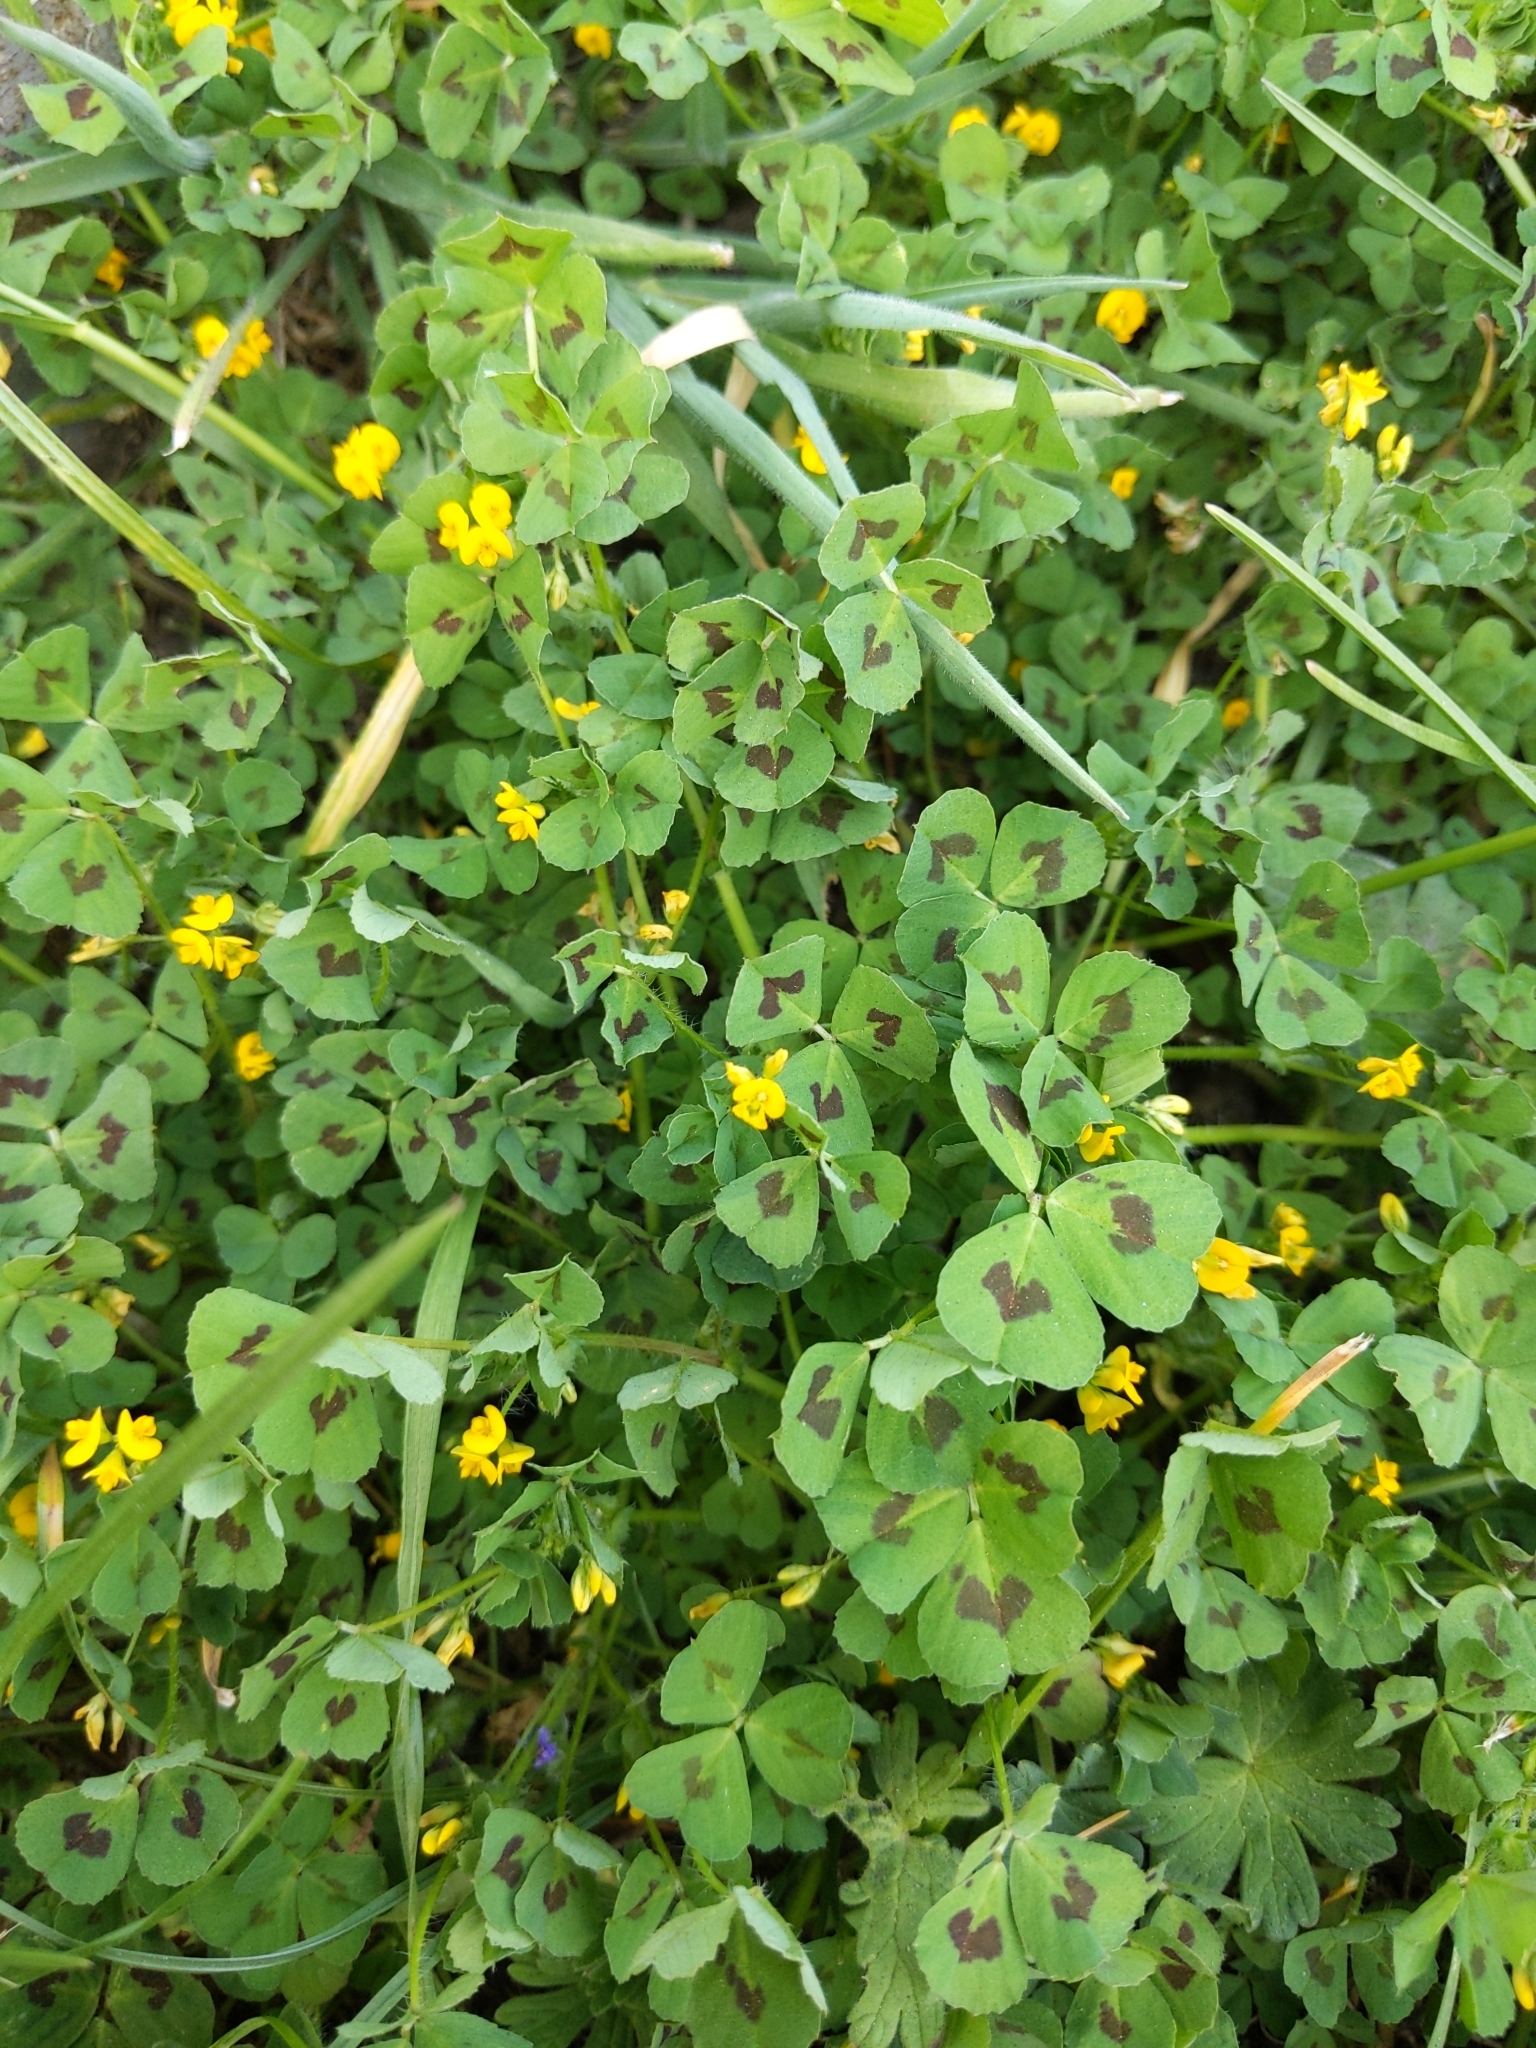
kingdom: Plantae
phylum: Tracheophyta
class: Magnoliopsida
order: Fabales
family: Fabaceae
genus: Medicago
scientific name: Medicago arabica
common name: Spotted medick
